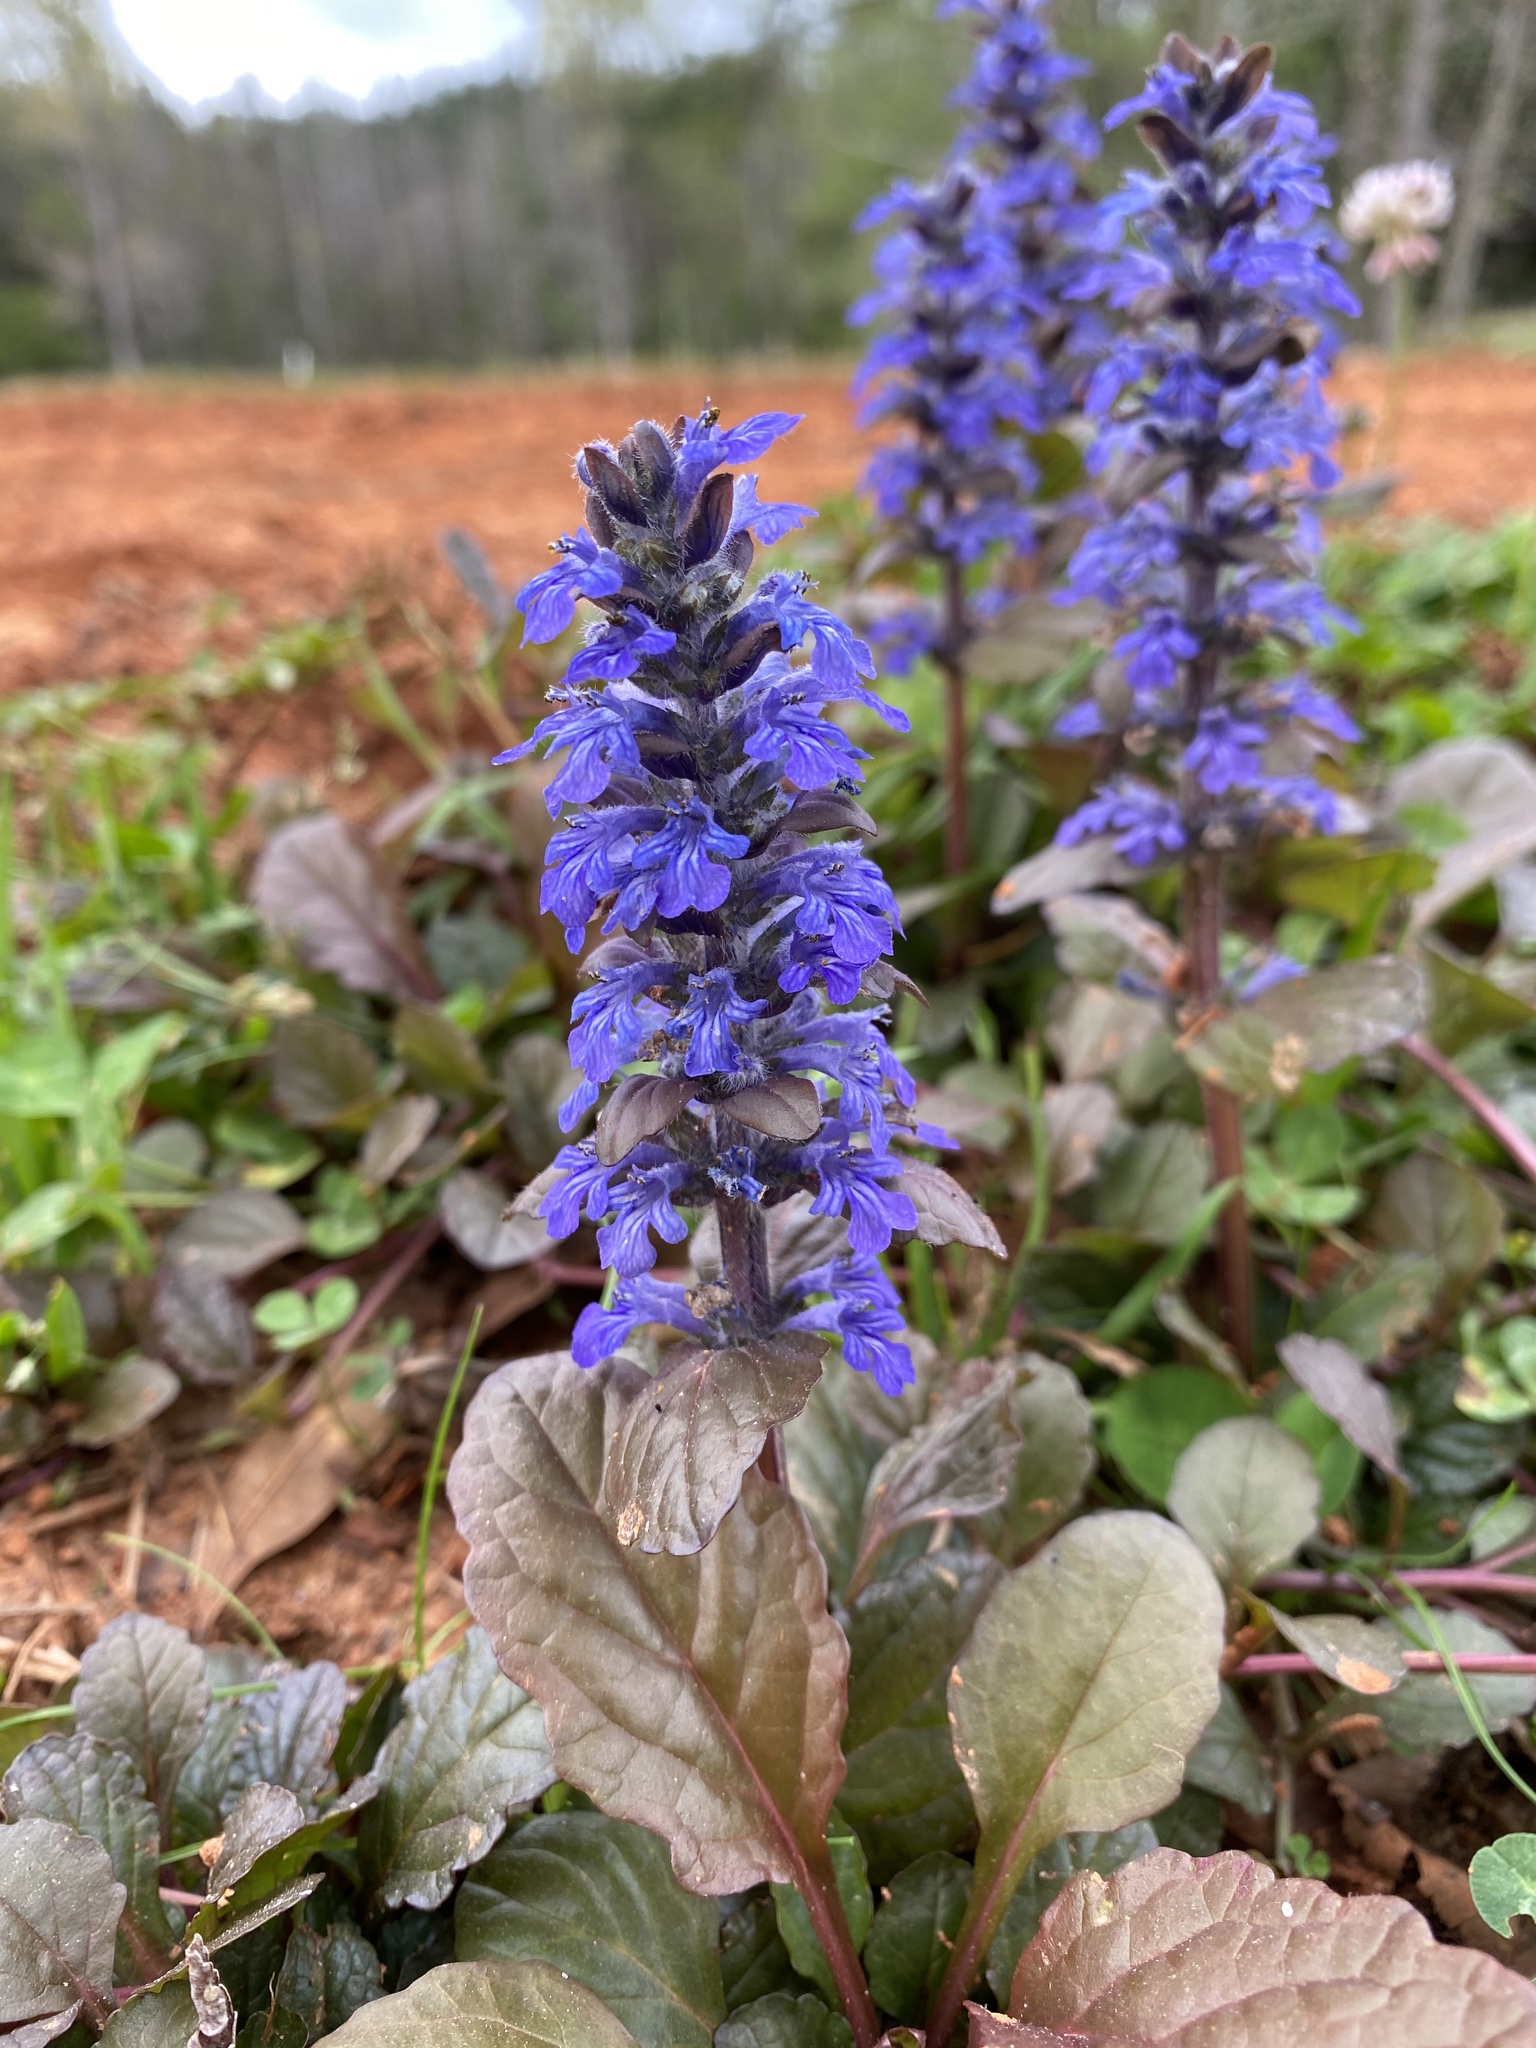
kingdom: Plantae
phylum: Tracheophyta
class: Magnoliopsida
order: Lamiales
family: Lamiaceae
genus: Ajuga
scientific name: Ajuga reptans
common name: Bugle
